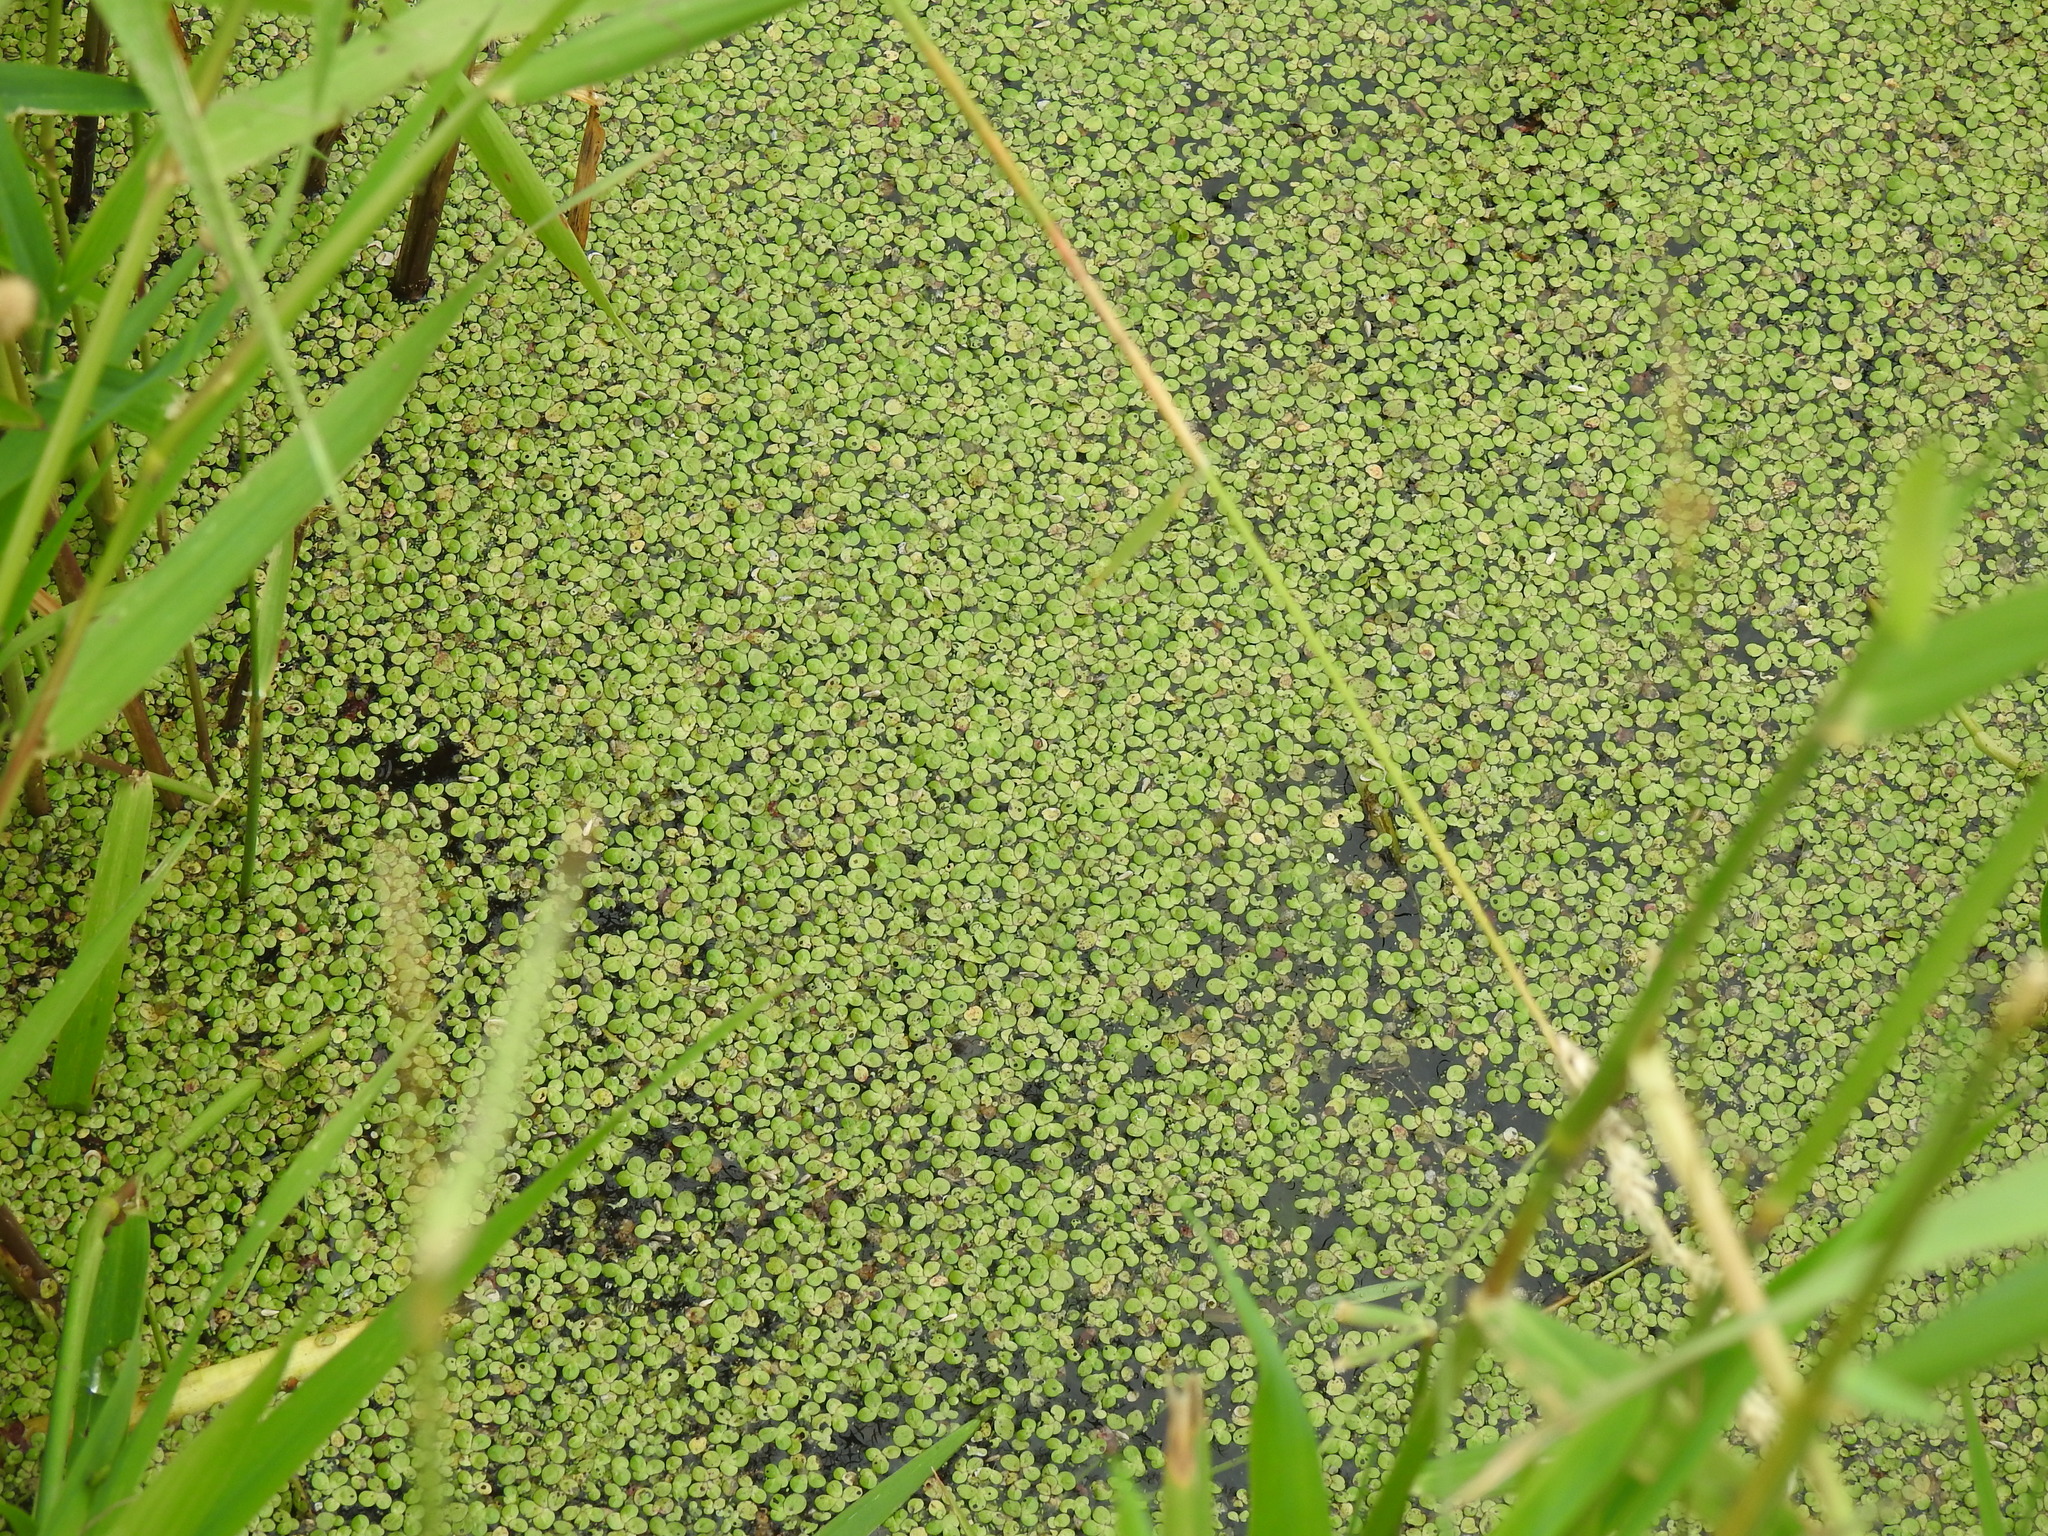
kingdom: Plantae
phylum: Tracheophyta
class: Liliopsida
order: Alismatales
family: Araceae
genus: Lemna
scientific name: Lemna minor
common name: Common duckweed
